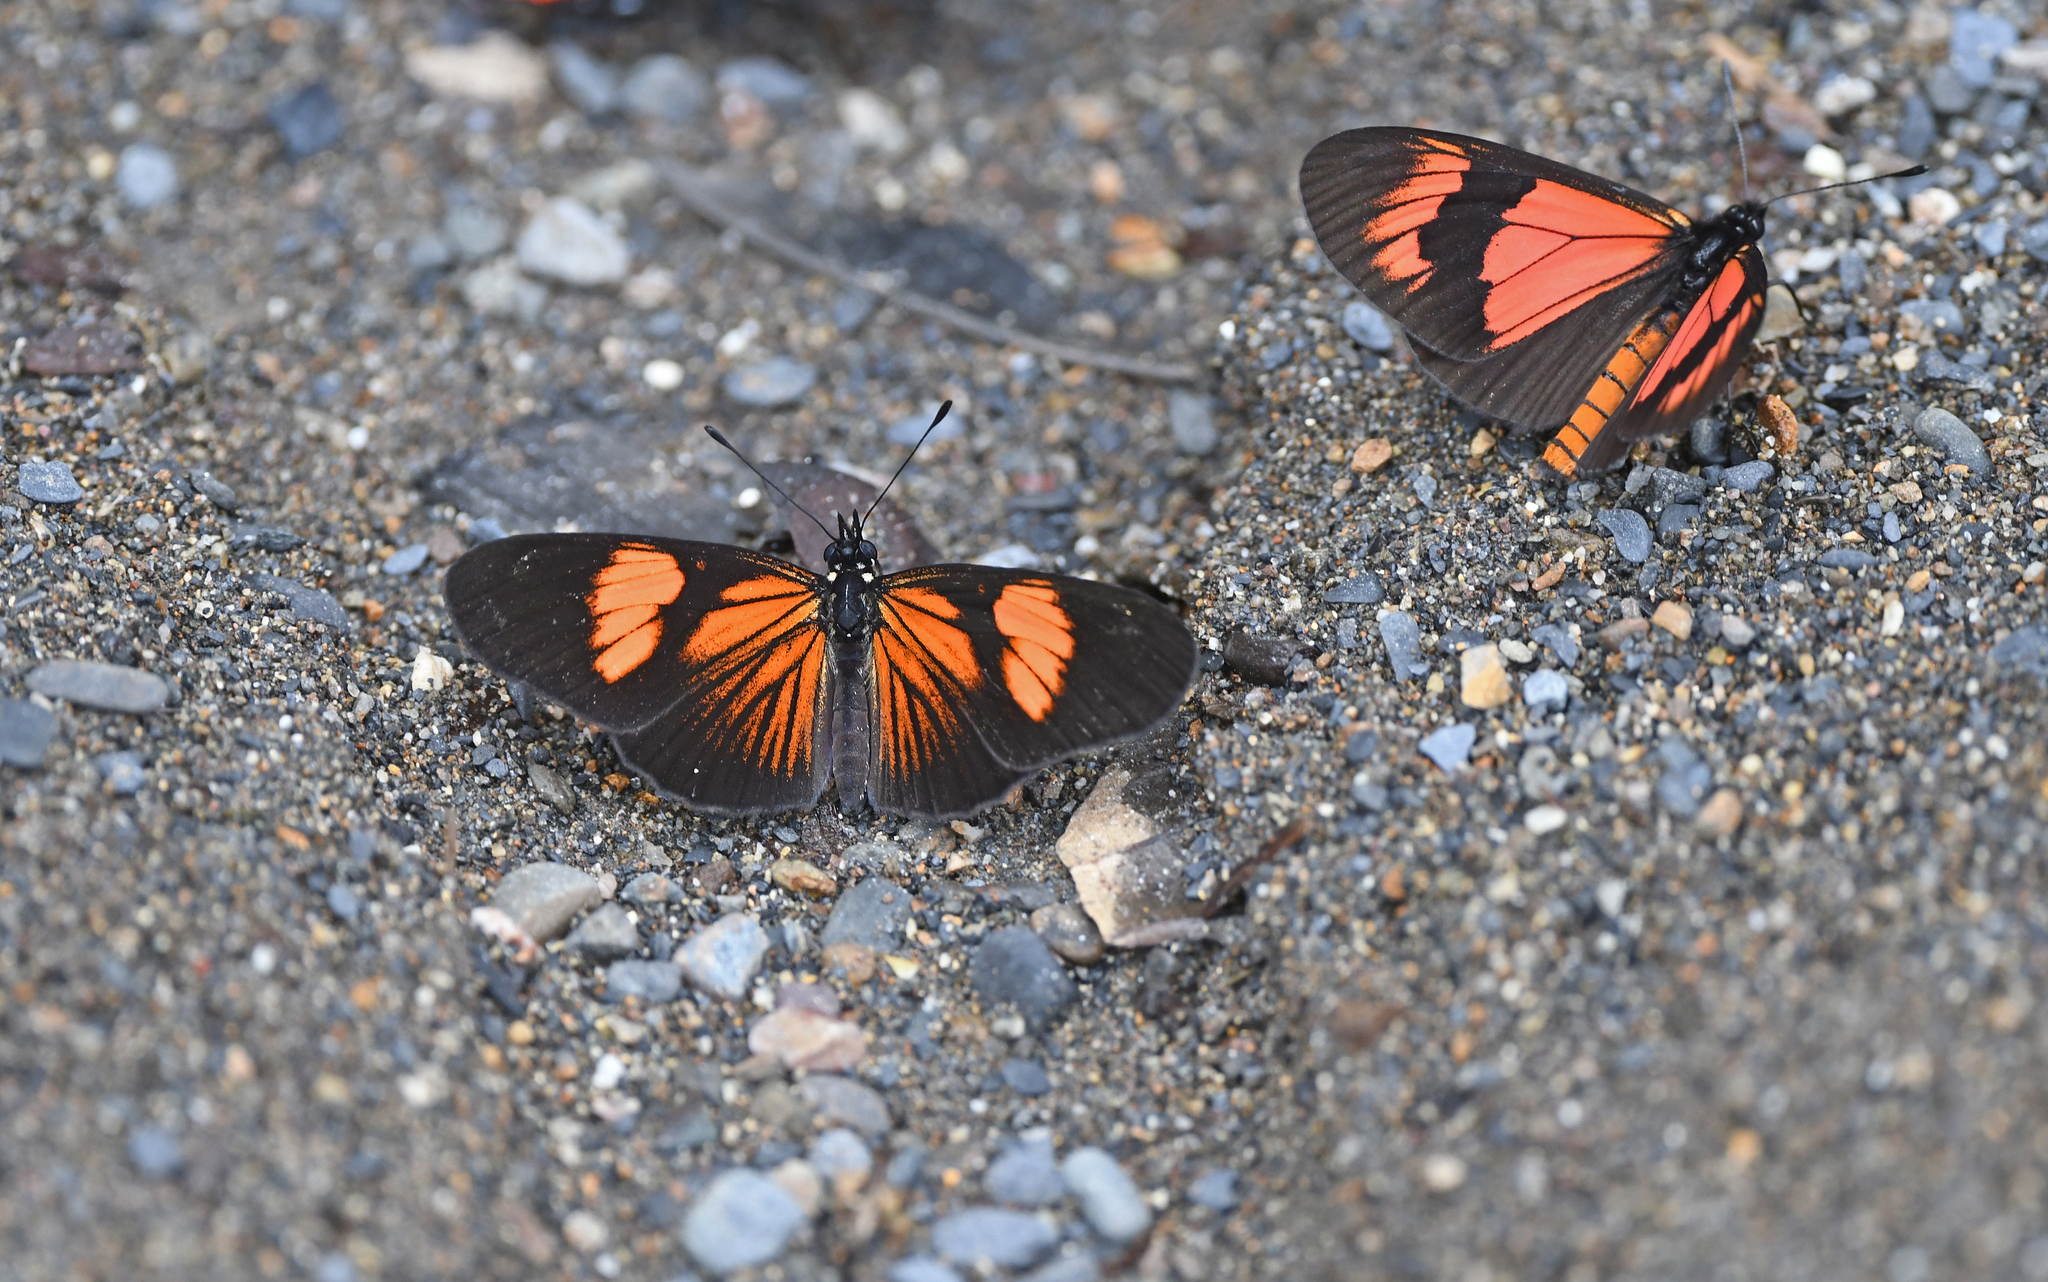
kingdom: Animalia
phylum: Arthropoda
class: Insecta
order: Lepidoptera
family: Nymphalidae
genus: Castilia
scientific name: Castilia perilla
